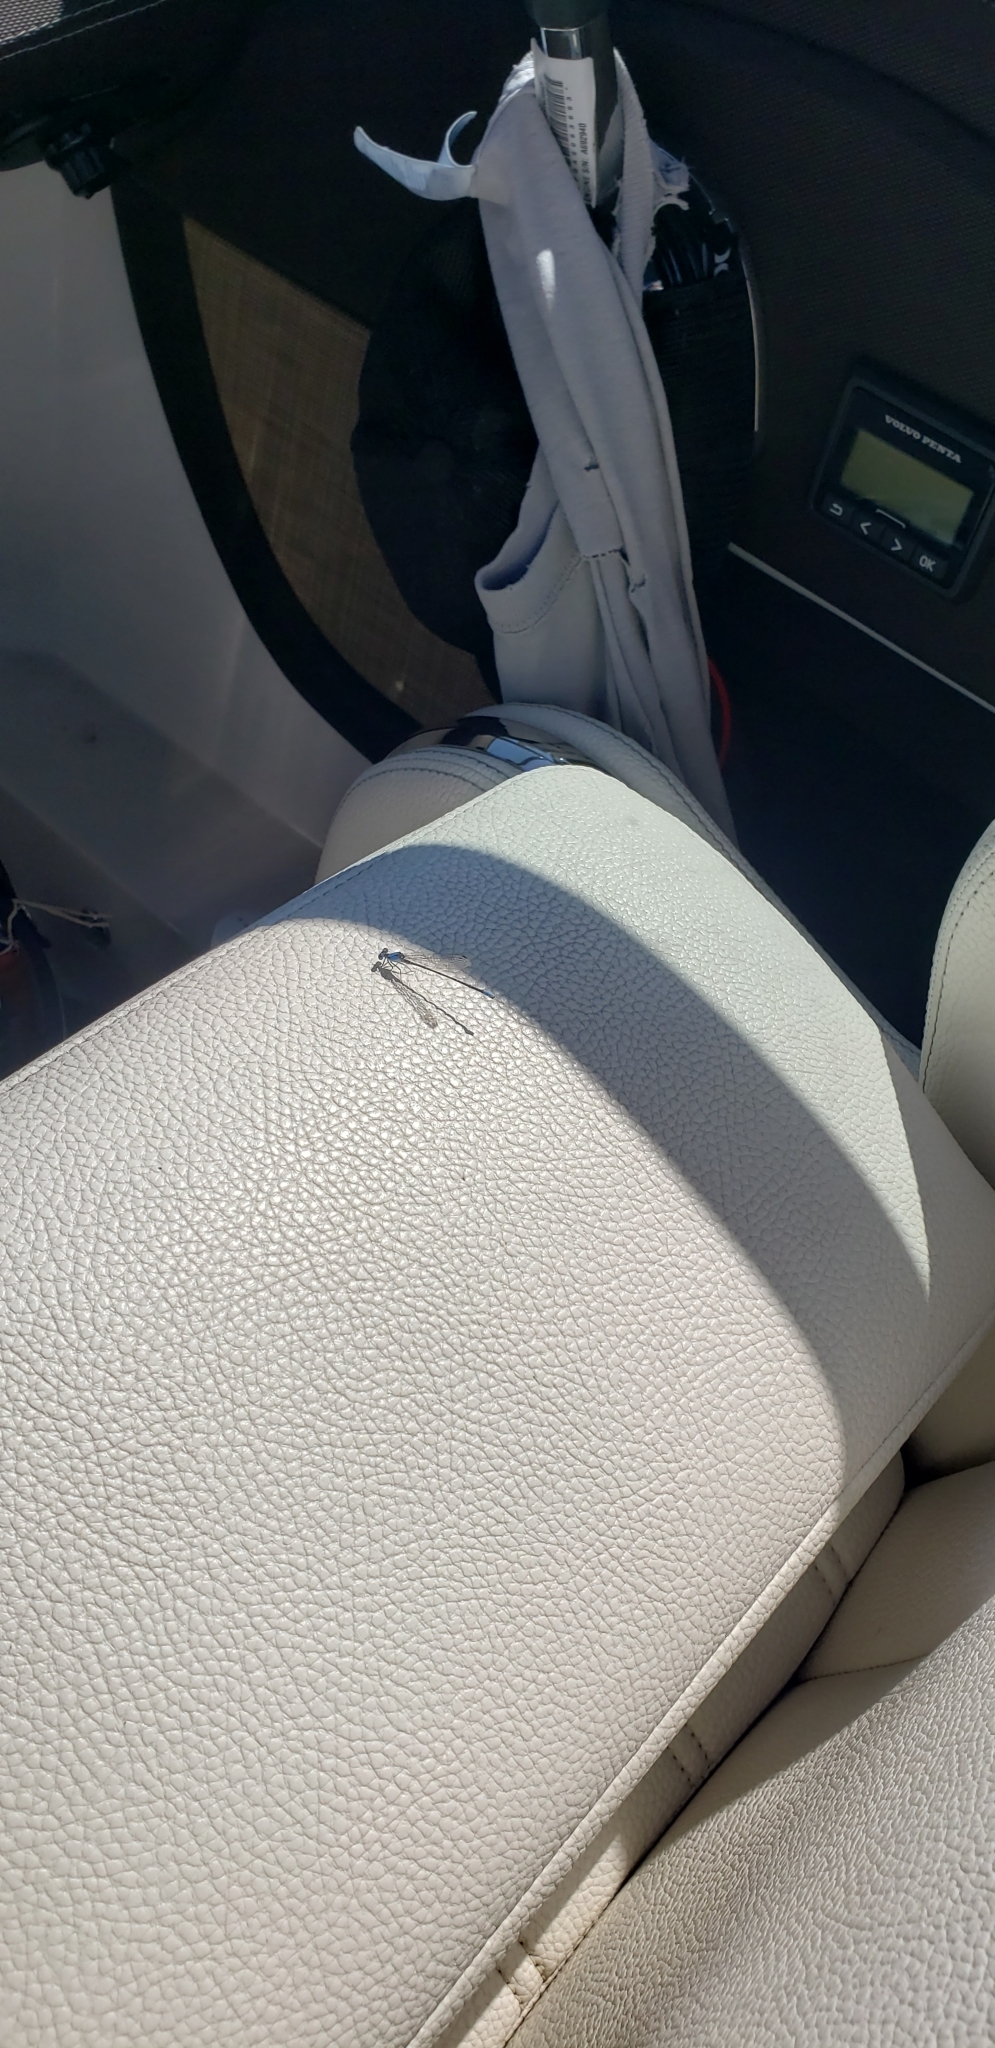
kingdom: Animalia
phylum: Arthropoda
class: Insecta
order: Odonata
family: Coenagrionidae
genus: Argia
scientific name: Argia apicalis
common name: Blue-fronted dancer
